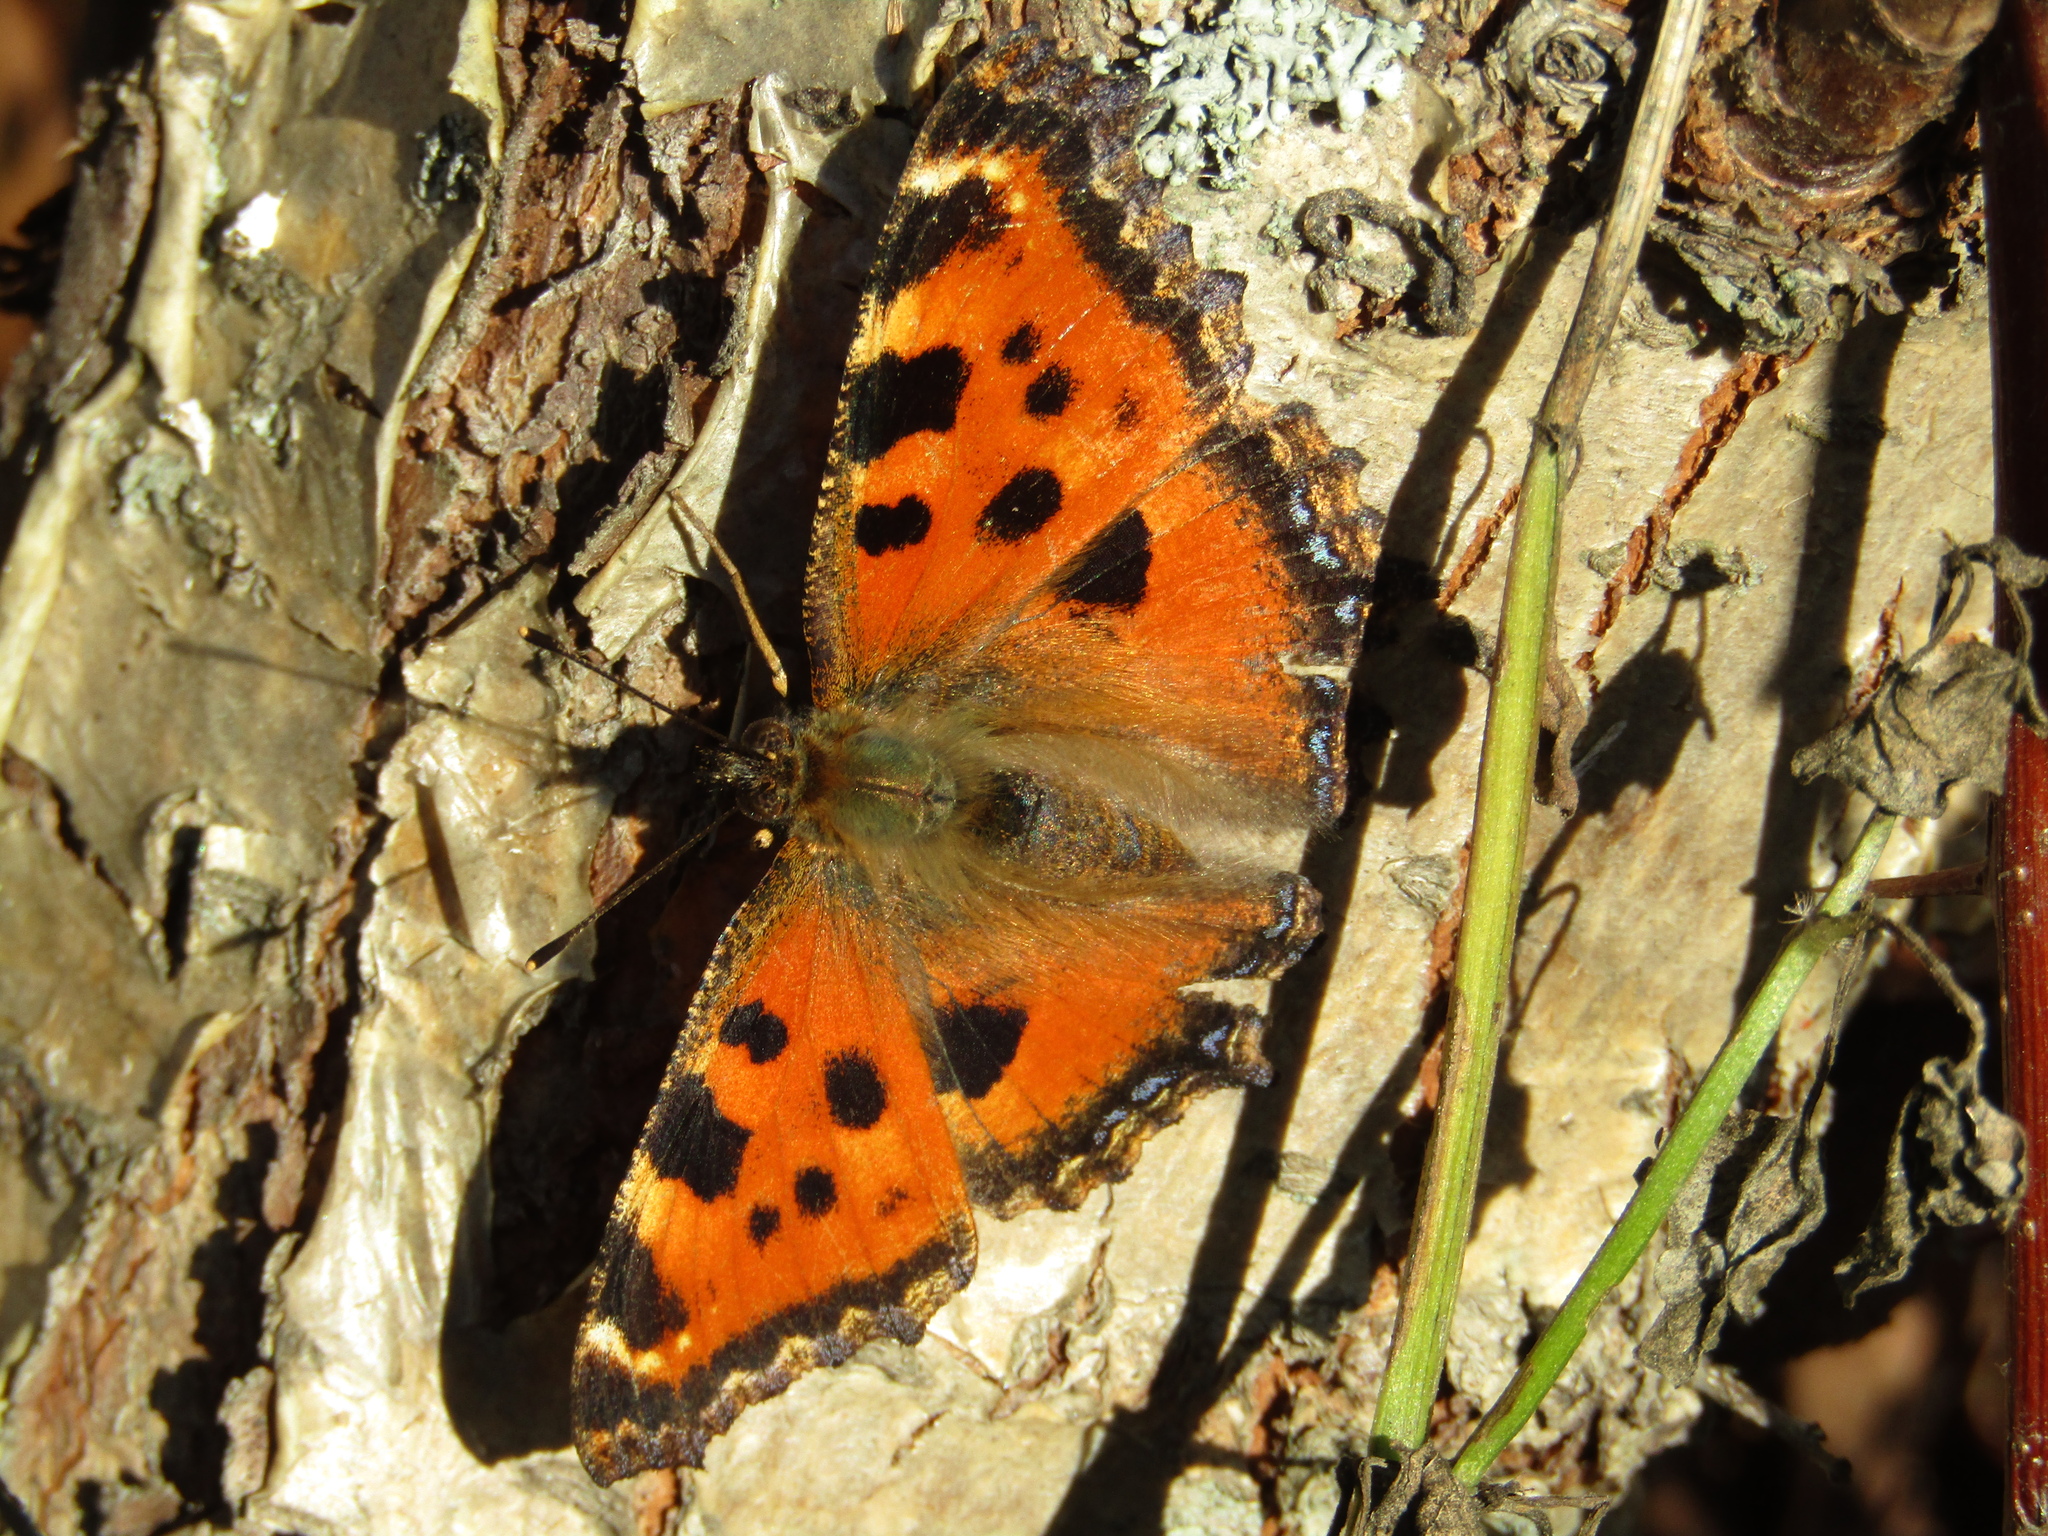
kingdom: Animalia
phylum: Arthropoda
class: Insecta
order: Lepidoptera
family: Nymphalidae
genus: Nymphalis
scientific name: Nymphalis xanthomelas
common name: Scarce tortoiseshell
